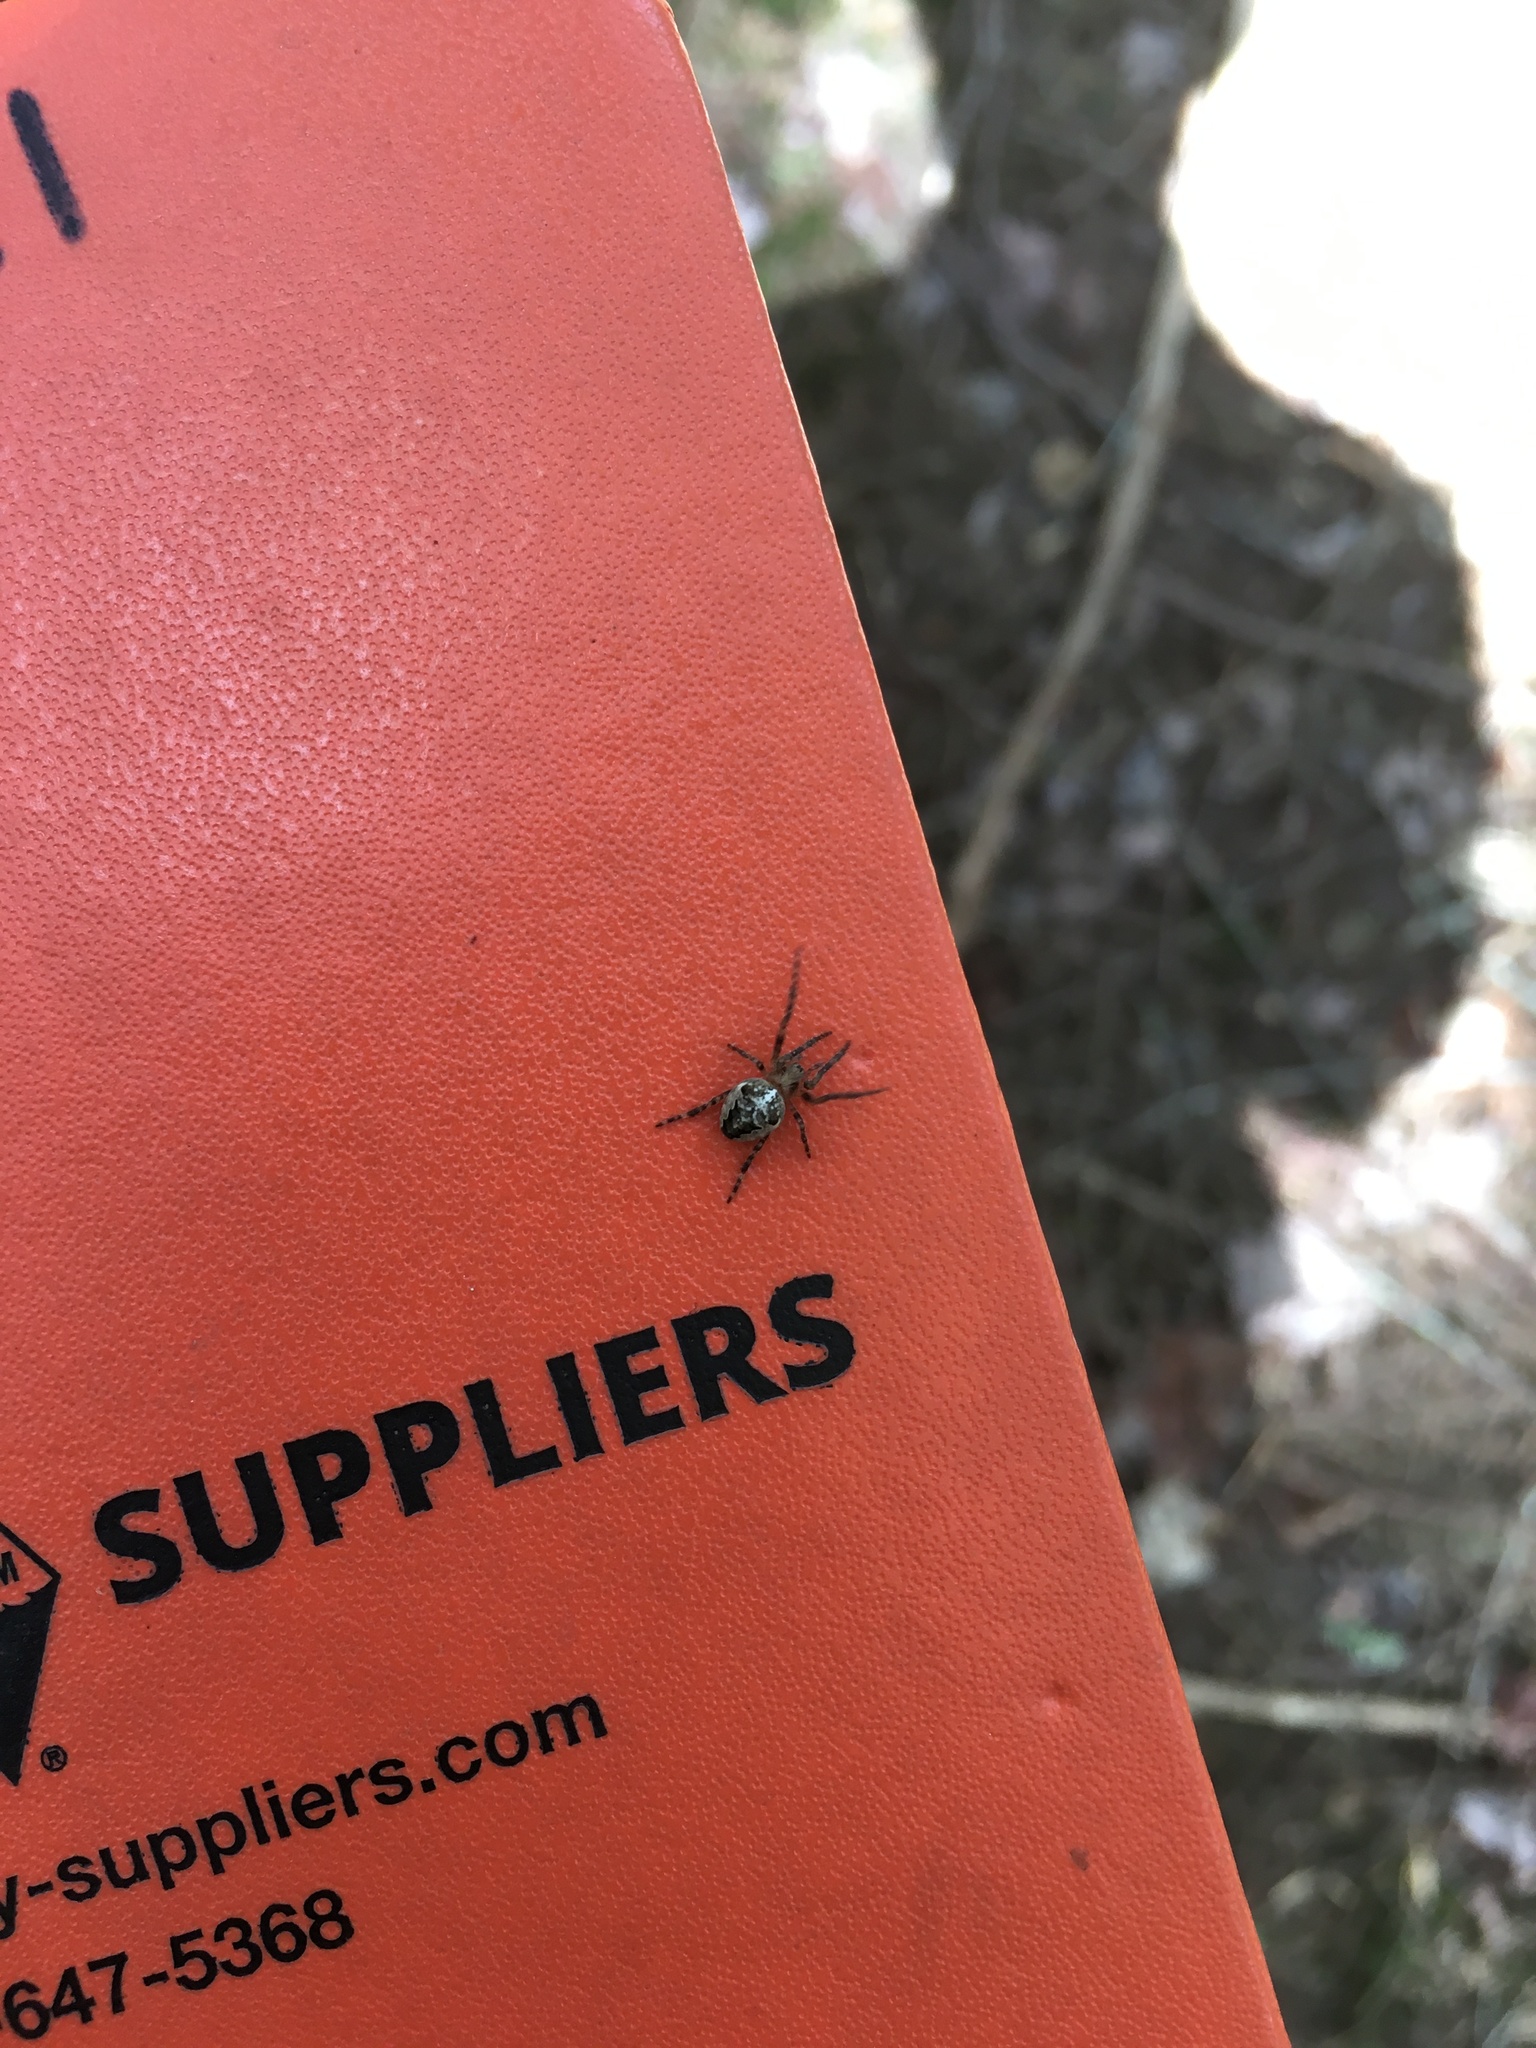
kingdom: Animalia
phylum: Arthropoda
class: Arachnida
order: Araneae
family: Araneidae
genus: Araneus
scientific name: Araneus nordmanni
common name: Nordmann's orbweaver
